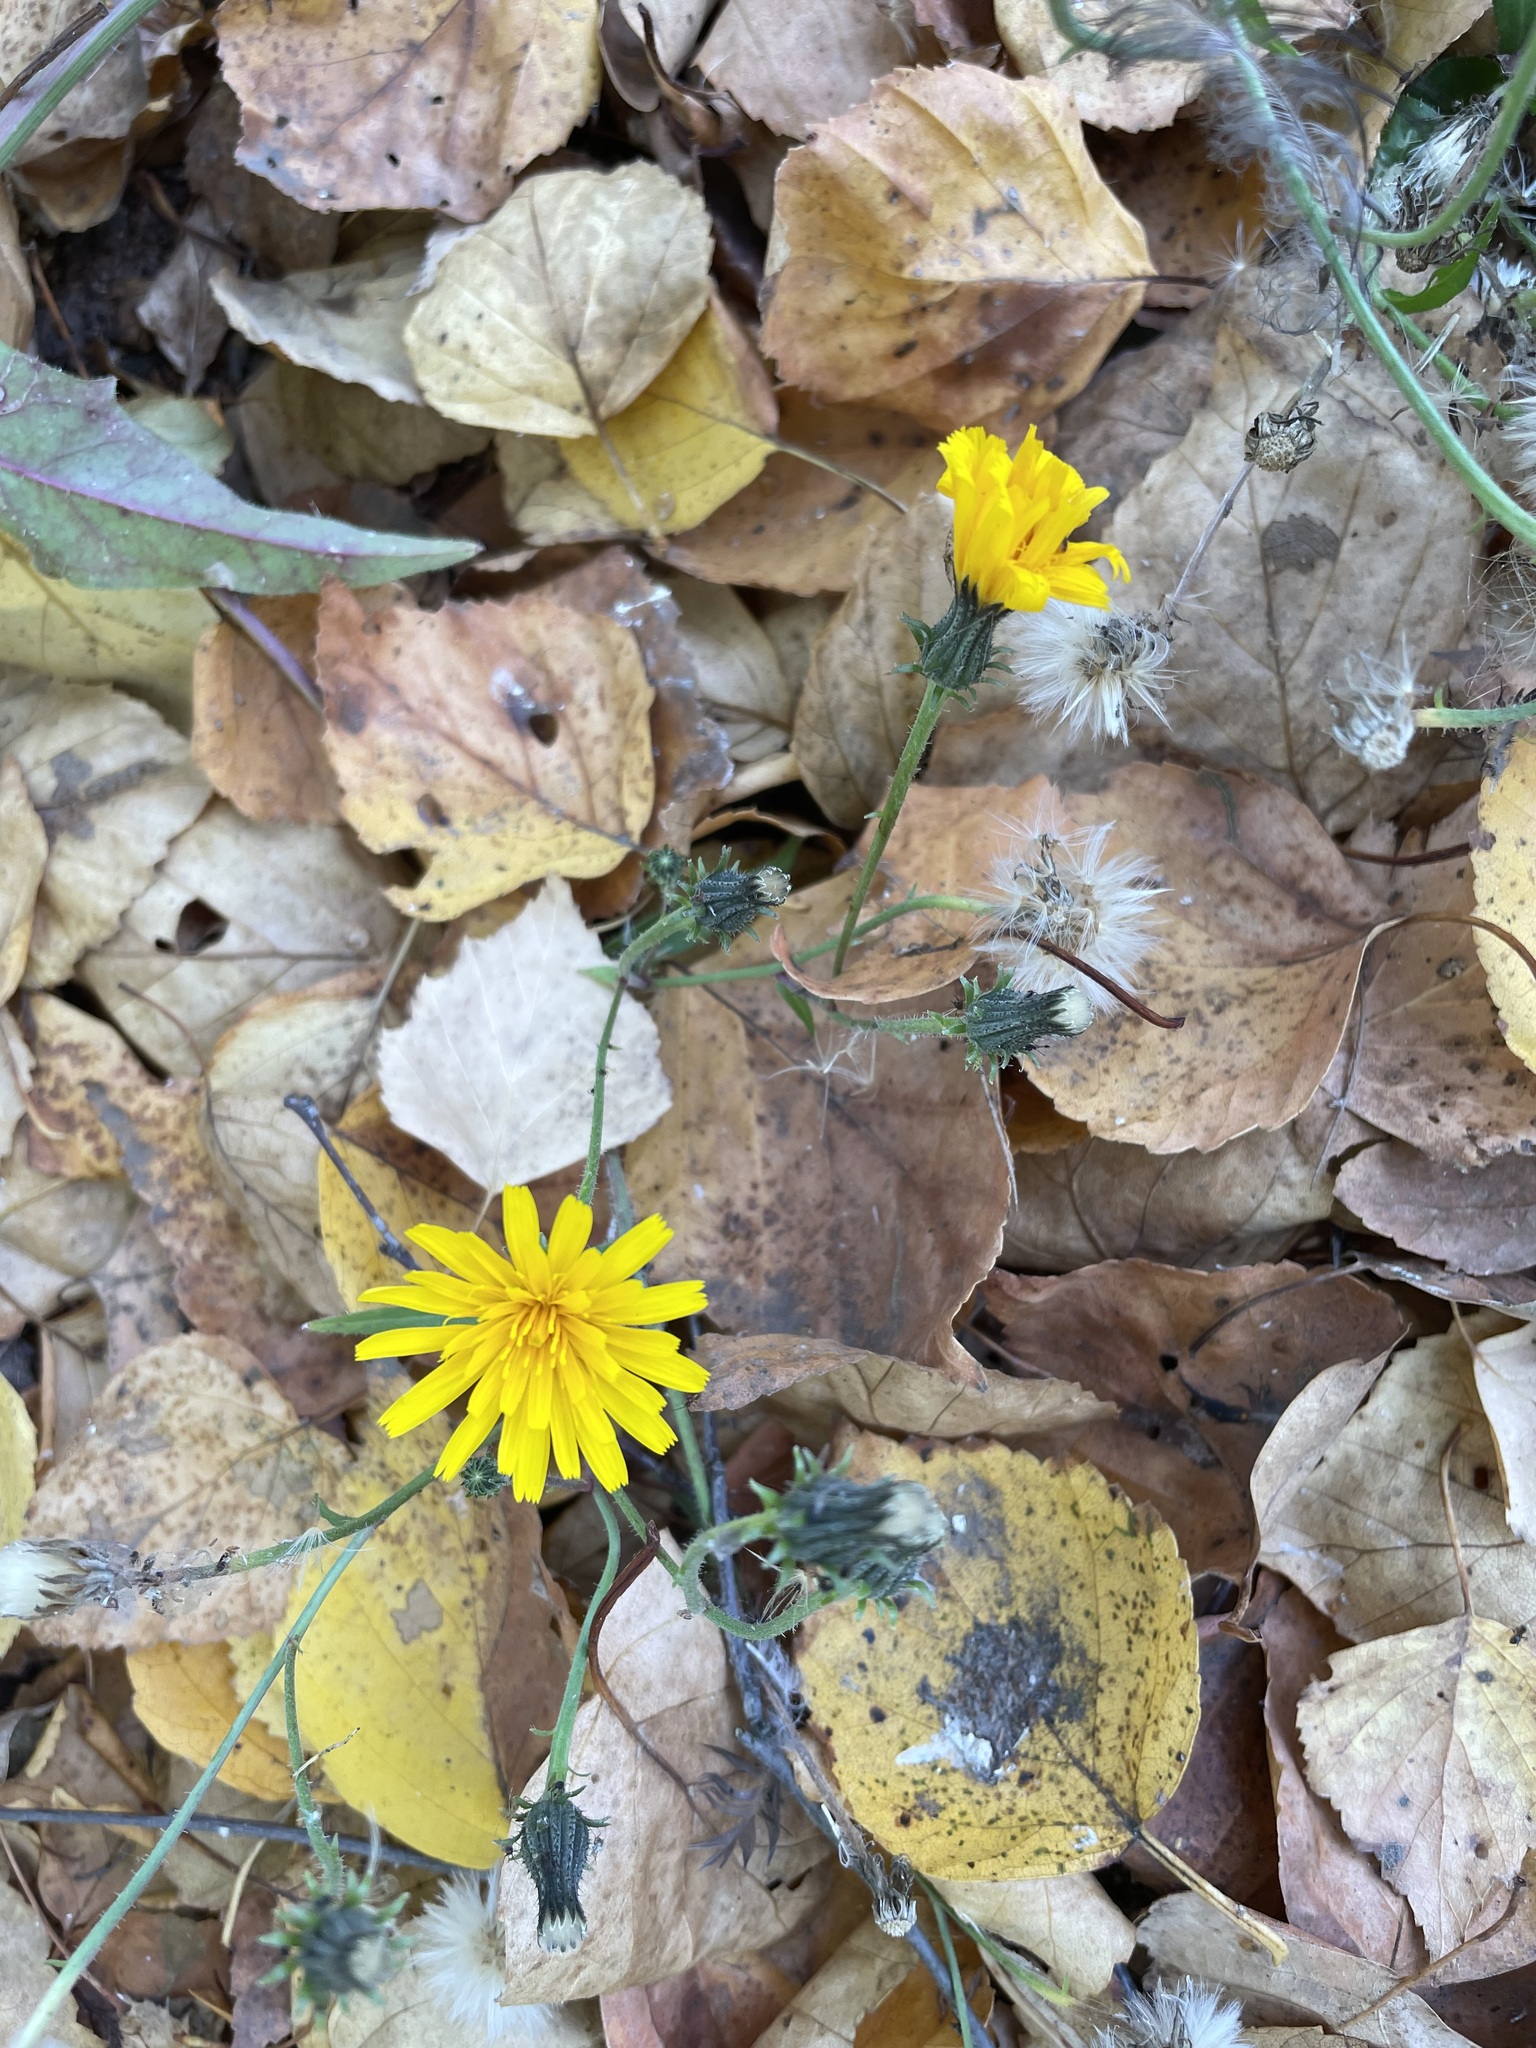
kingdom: Plantae
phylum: Tracheophyta
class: Magnoliopsida
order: Asterales
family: Asteraceae
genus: Picris
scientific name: Picris hieracioides
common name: Hawkweed oxtongue
